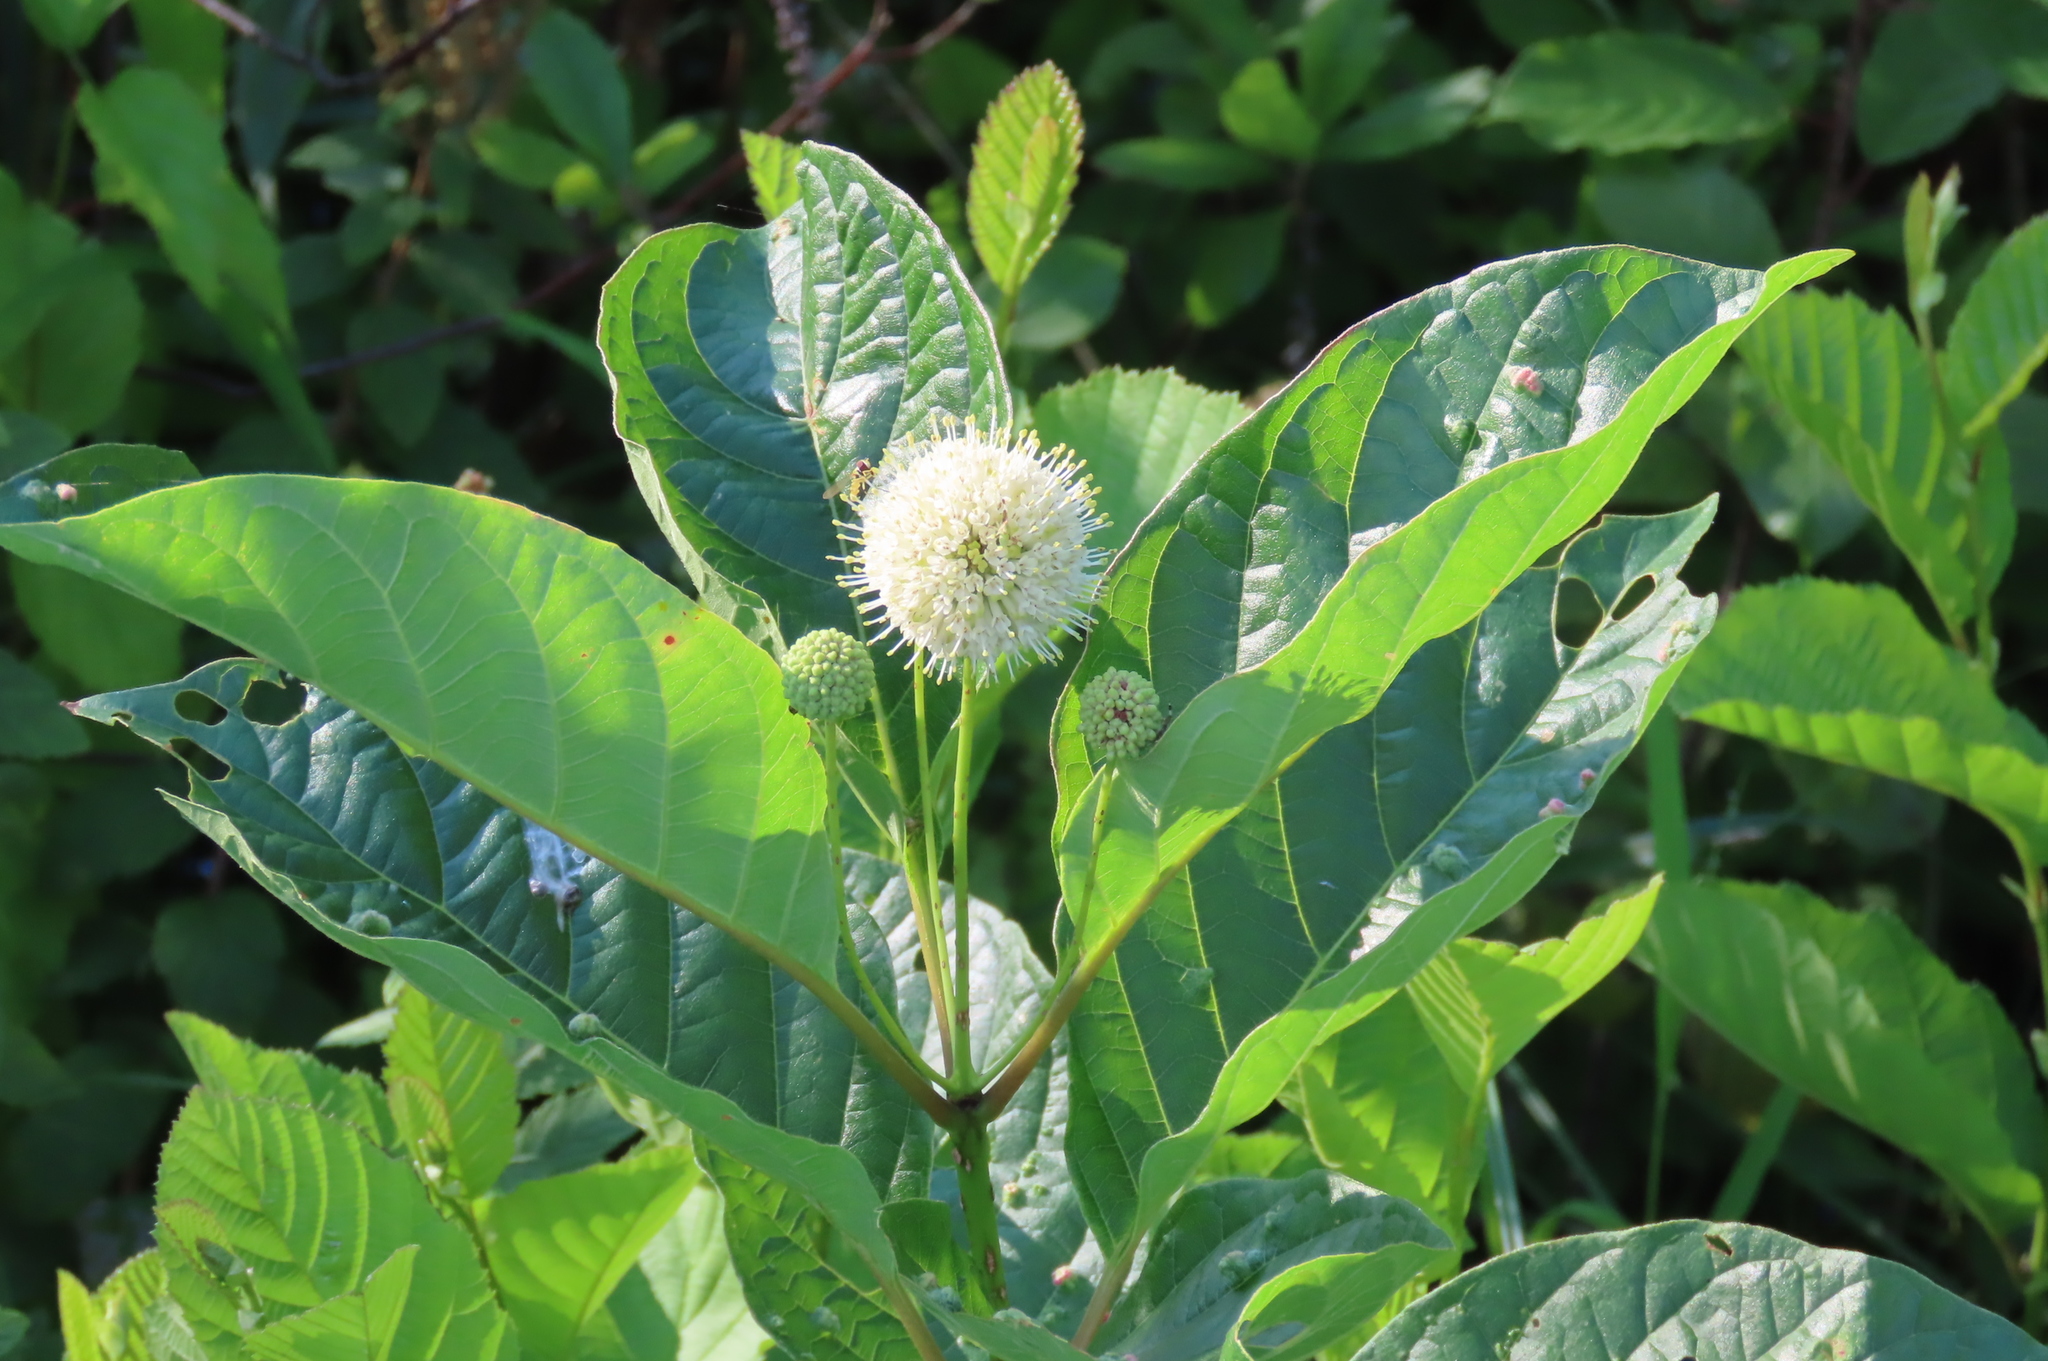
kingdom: Plantae
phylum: Tracheophyta
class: Magnoliopsida
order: Gentianales
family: Rubiaceae
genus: Cephalanthus
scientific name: Cephalanthus occidentalis
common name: Button-willow
